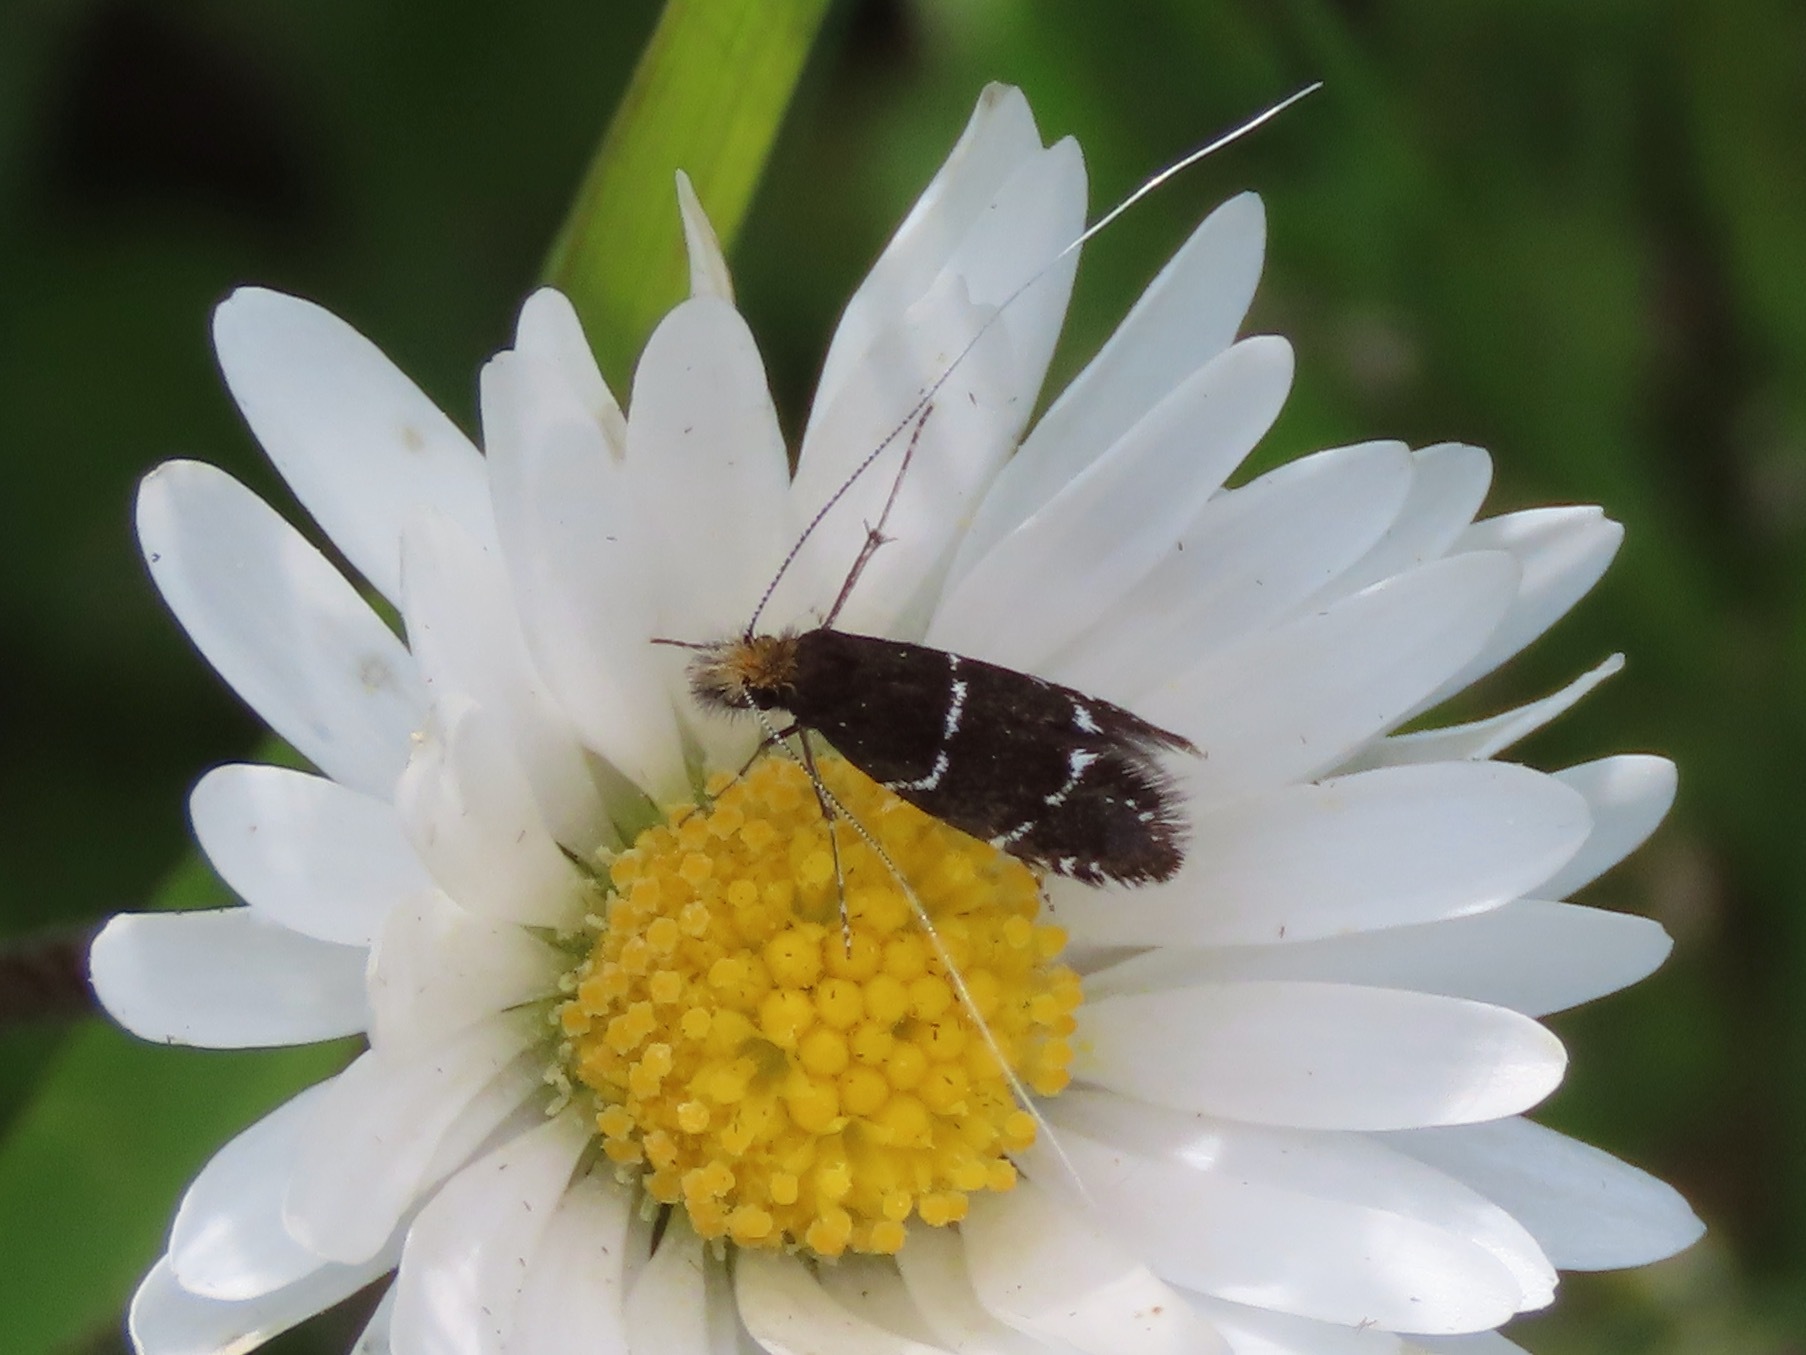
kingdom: Animalia
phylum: Arthropoda
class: Insecta
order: Lepidoptera
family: Adelidae
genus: Adela
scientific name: Adela septentrionella
